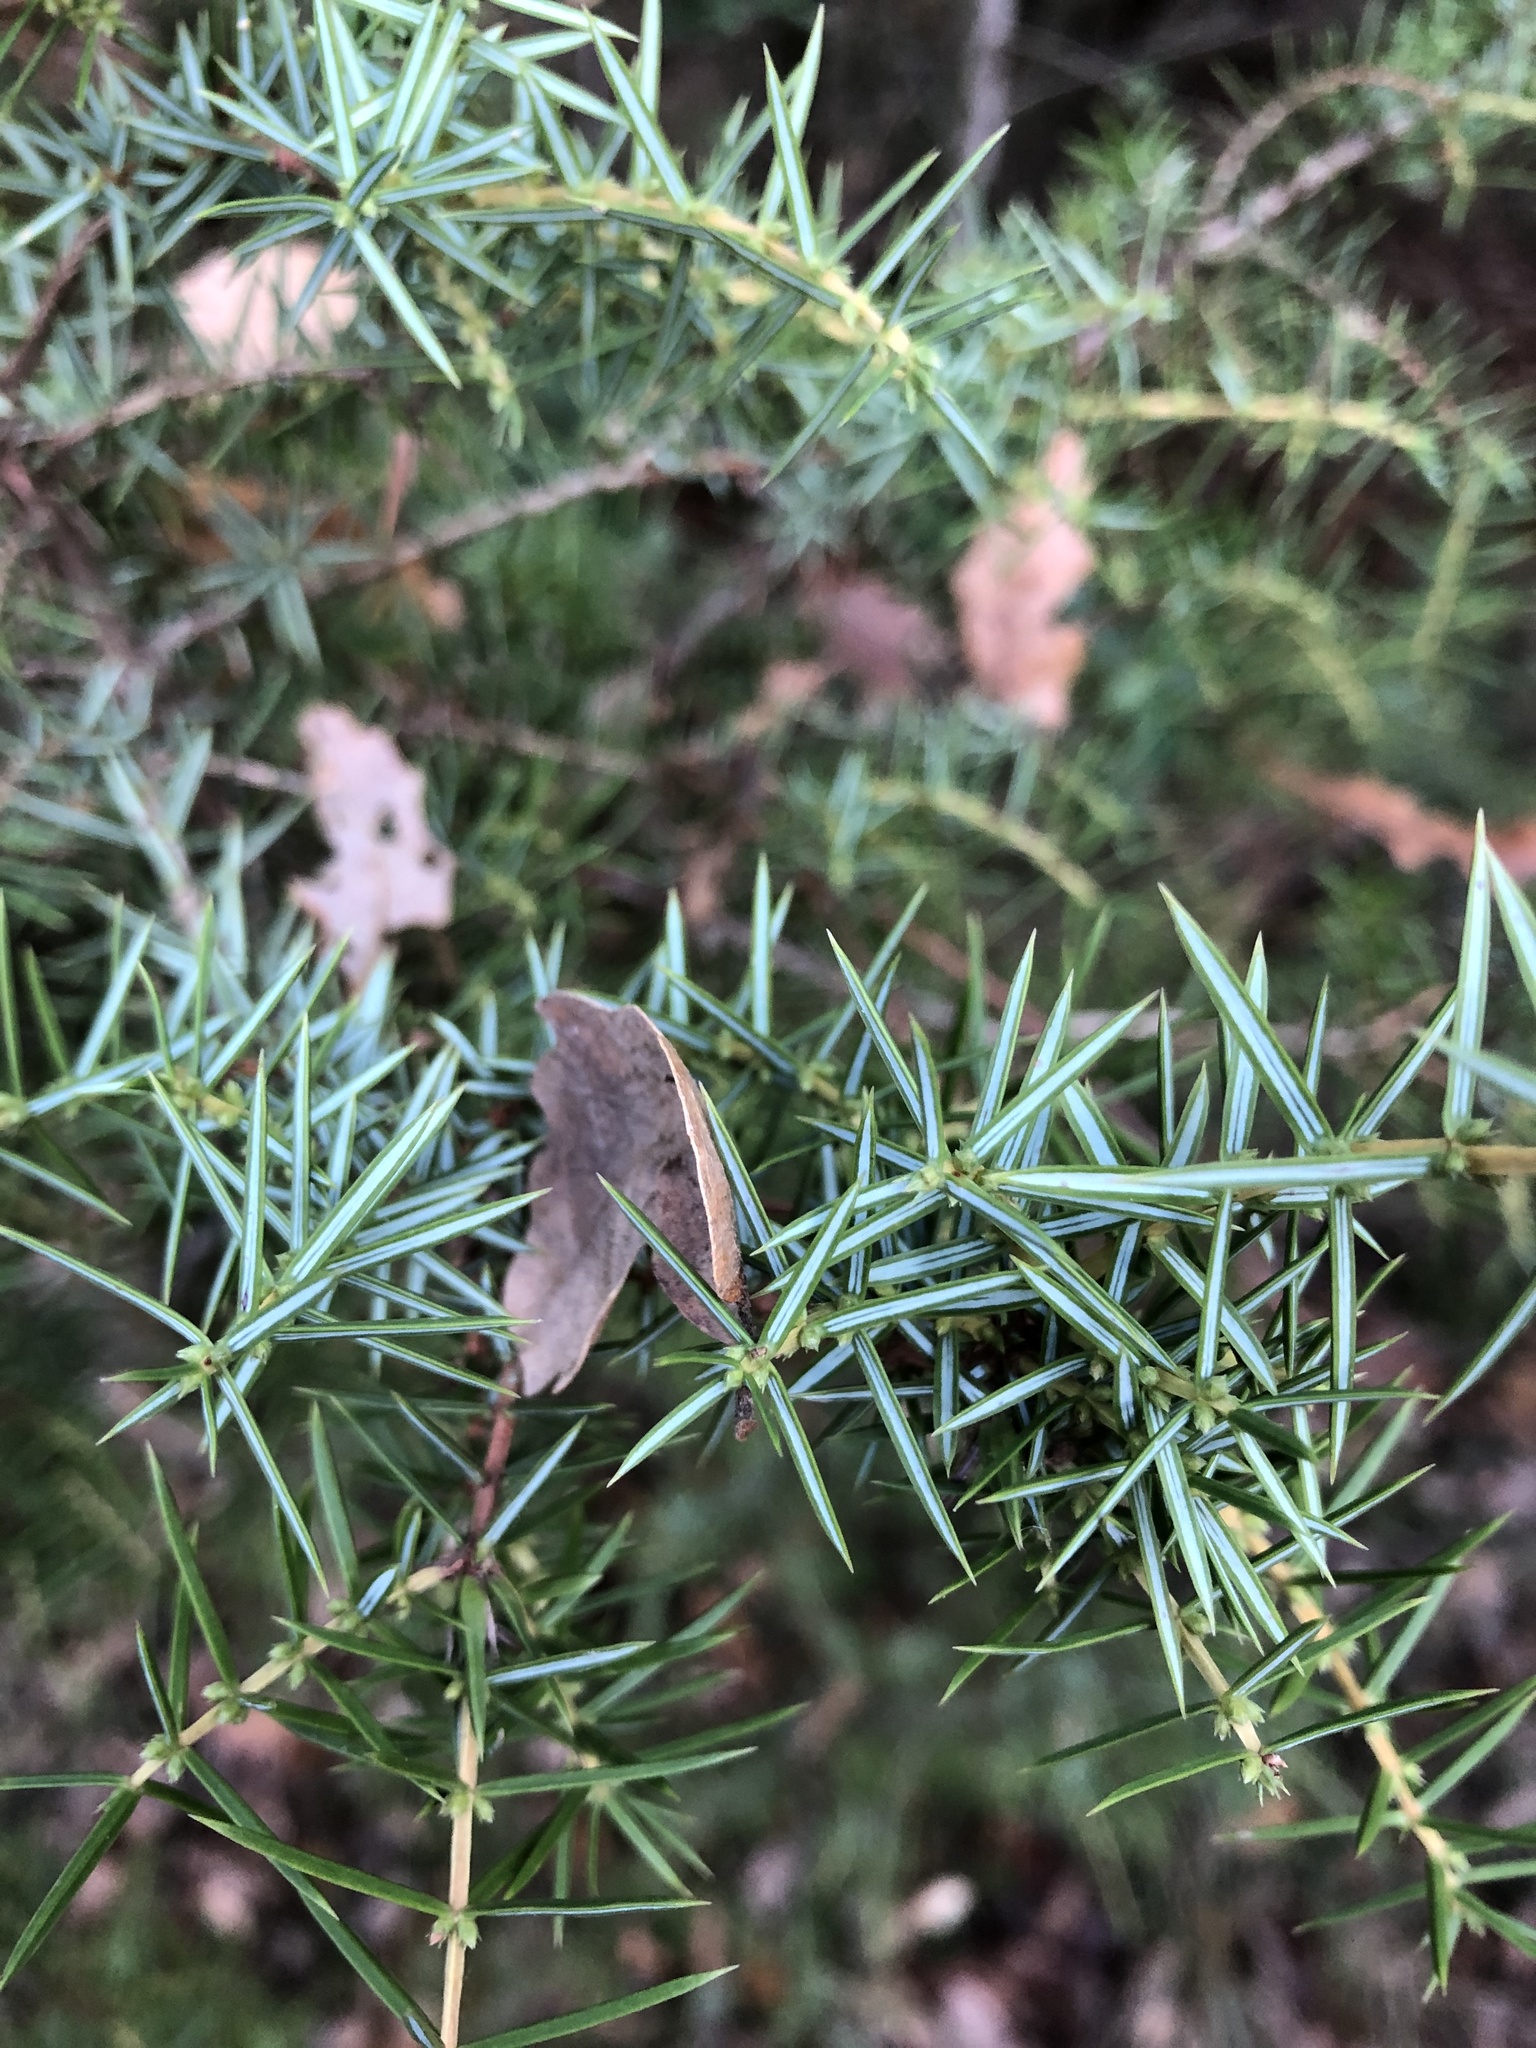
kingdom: Plantae
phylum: Tracheophyta
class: Pinopsida
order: Pinales
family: Cupressaceae
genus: Juniperus
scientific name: Juniperus communis
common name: Common juniper
